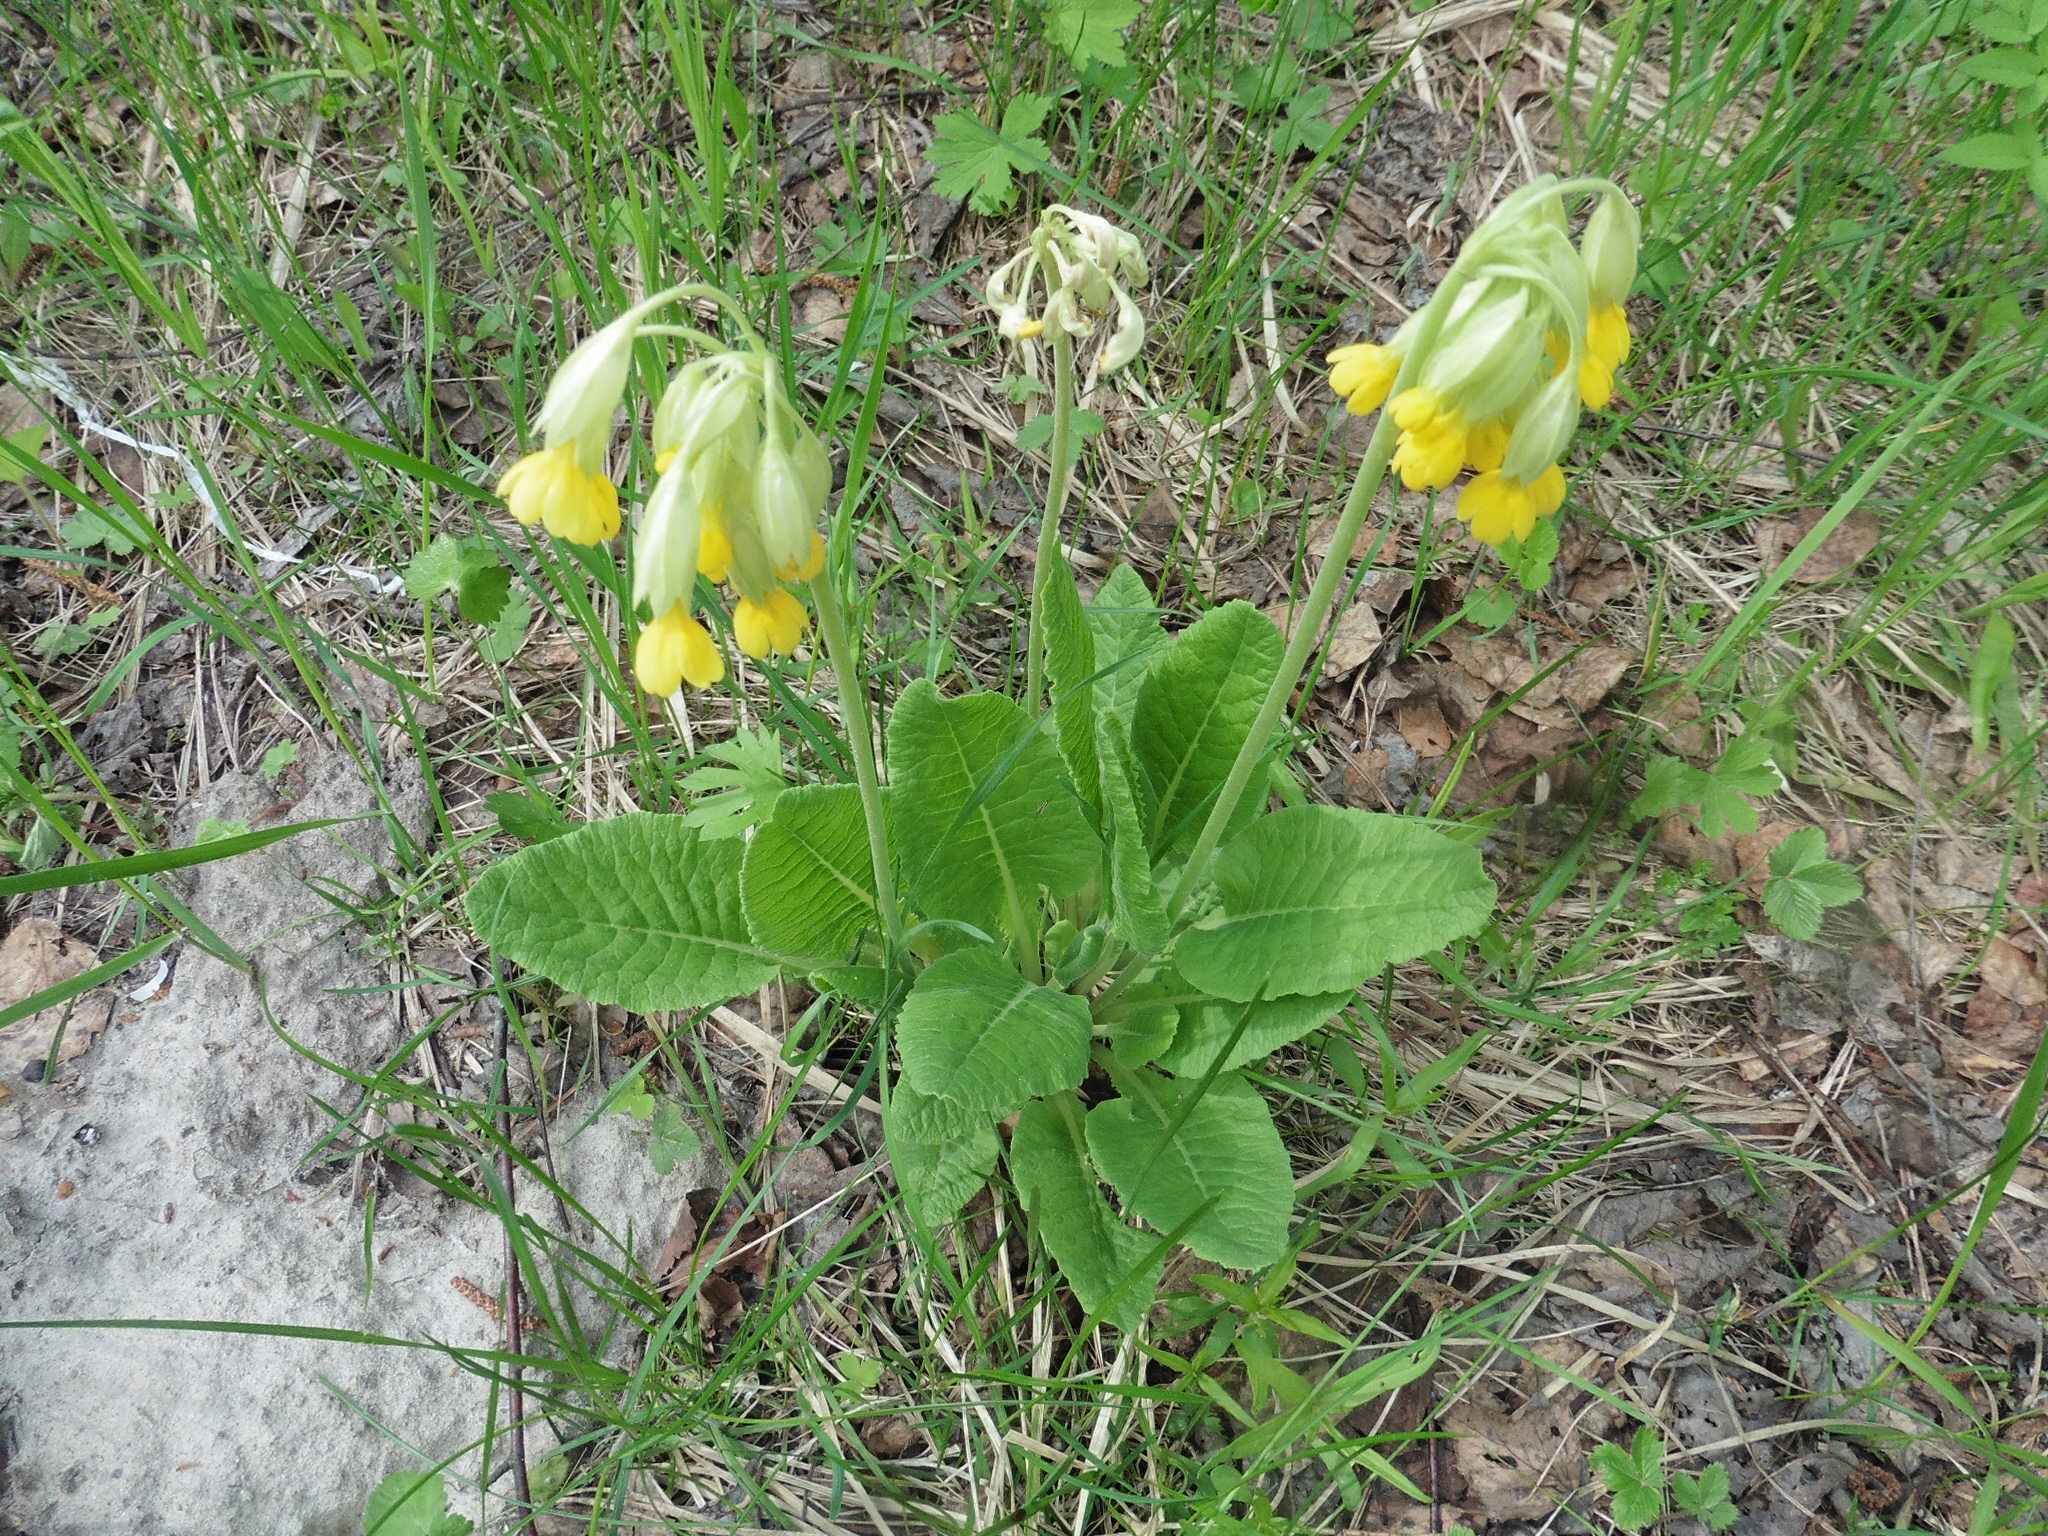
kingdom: Plantae
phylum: Tracheophyta
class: Magnoliopsida
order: Ericales
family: Primulaceae
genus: Primula
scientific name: Primula veris
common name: Cowslip
